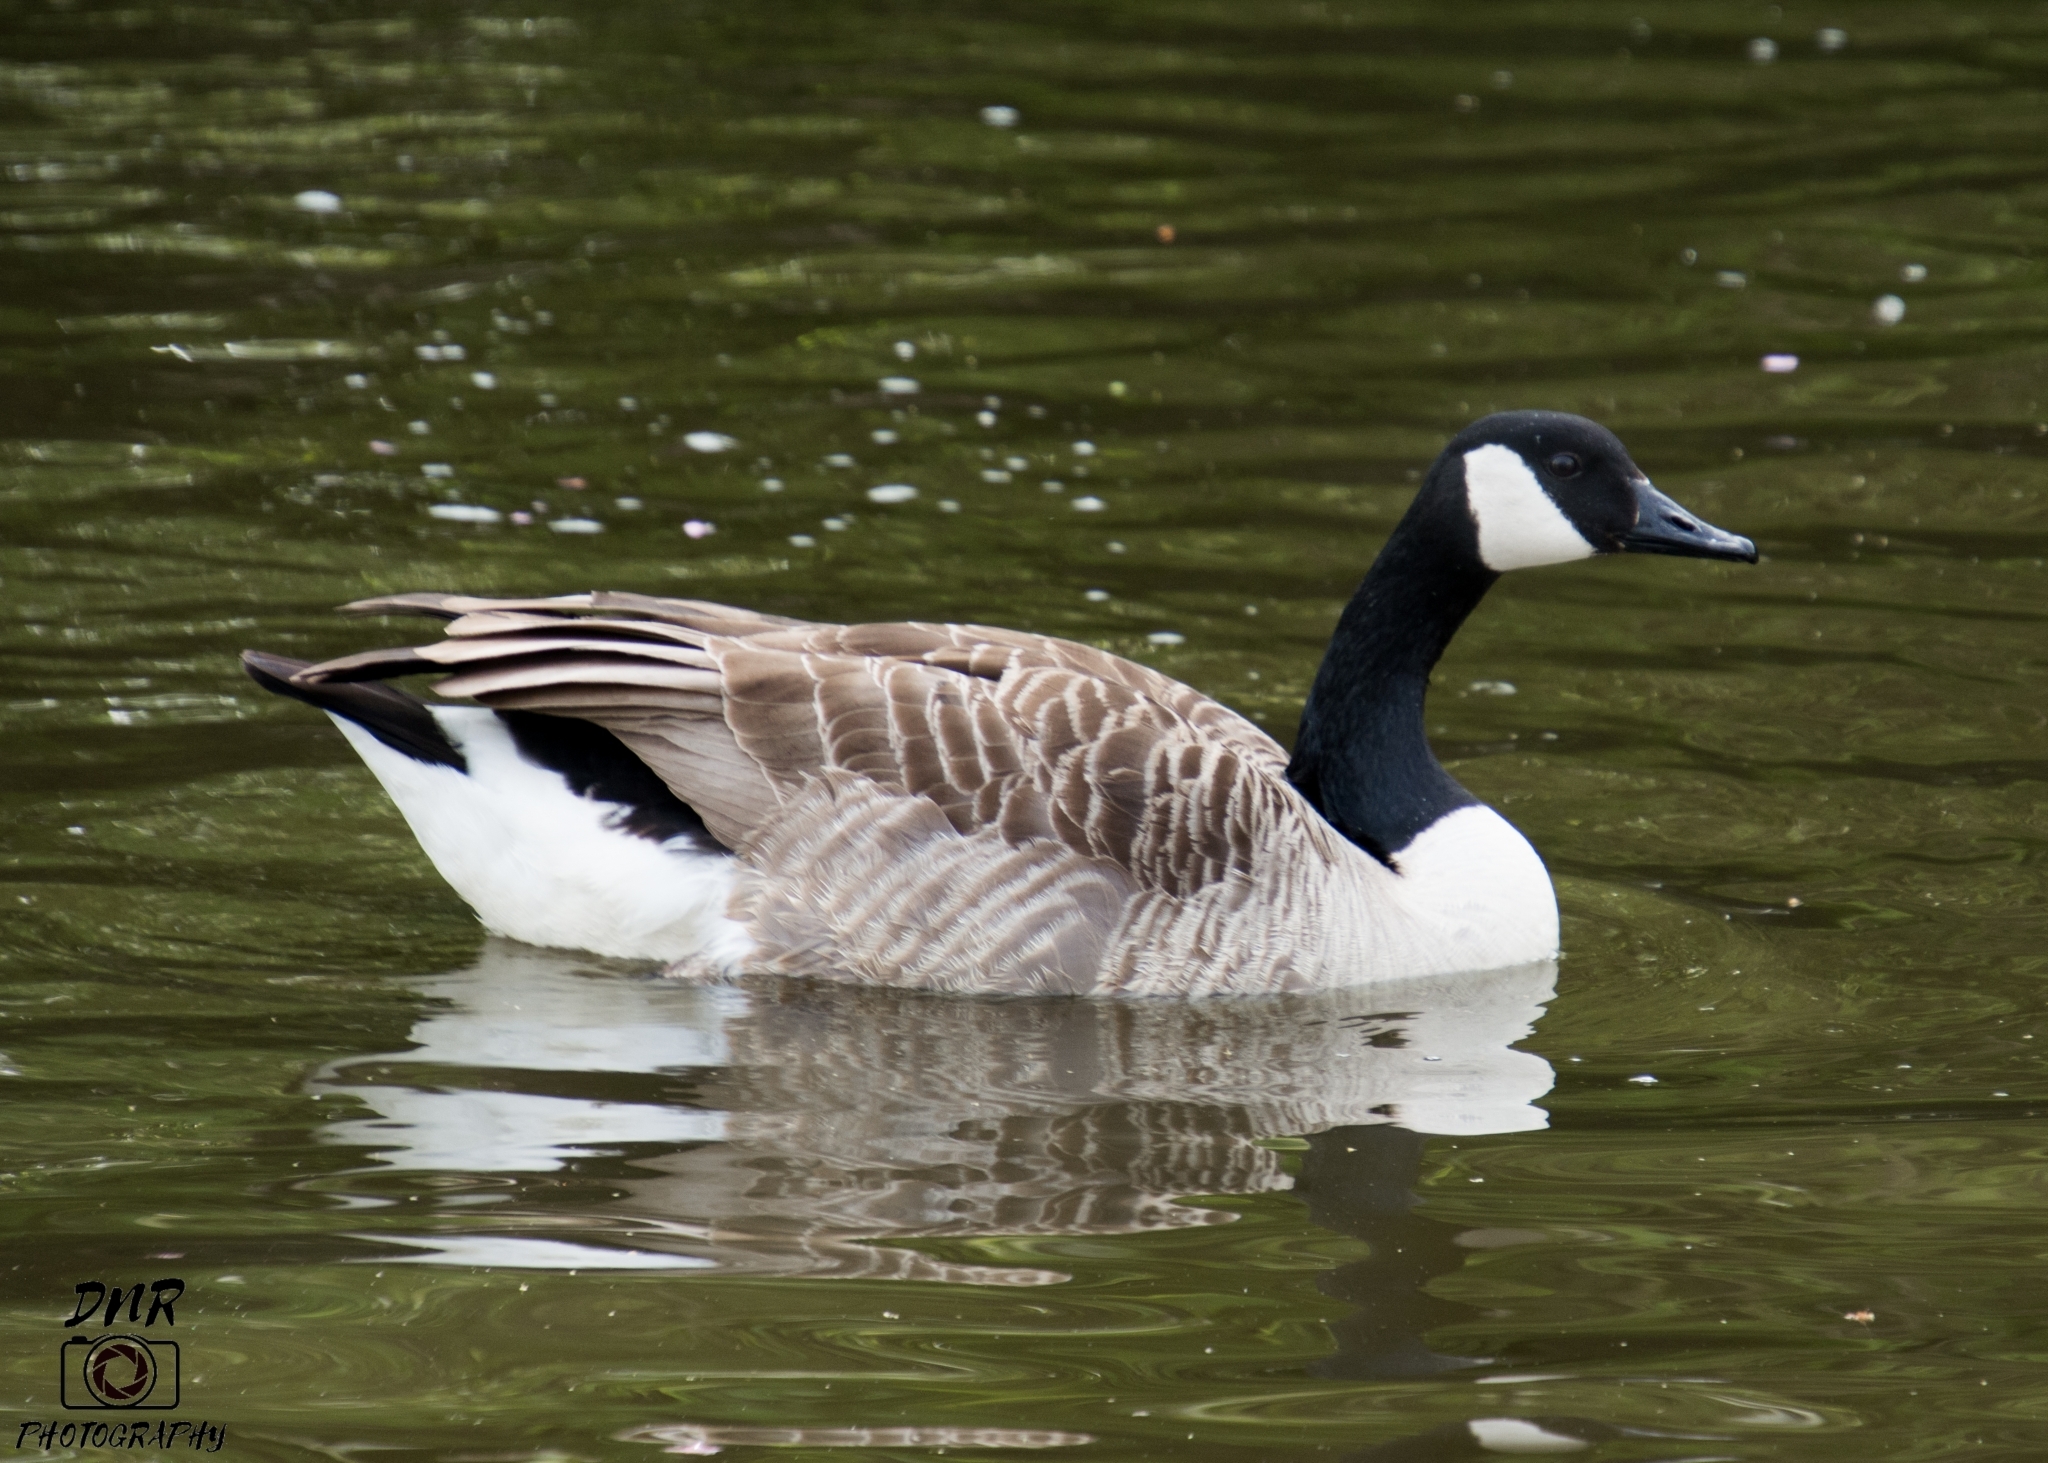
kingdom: Animalia
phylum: Chordata
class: Aves
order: Anseriformes
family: Anatidae
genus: Branta
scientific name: Branta canadensis
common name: Canada goose
